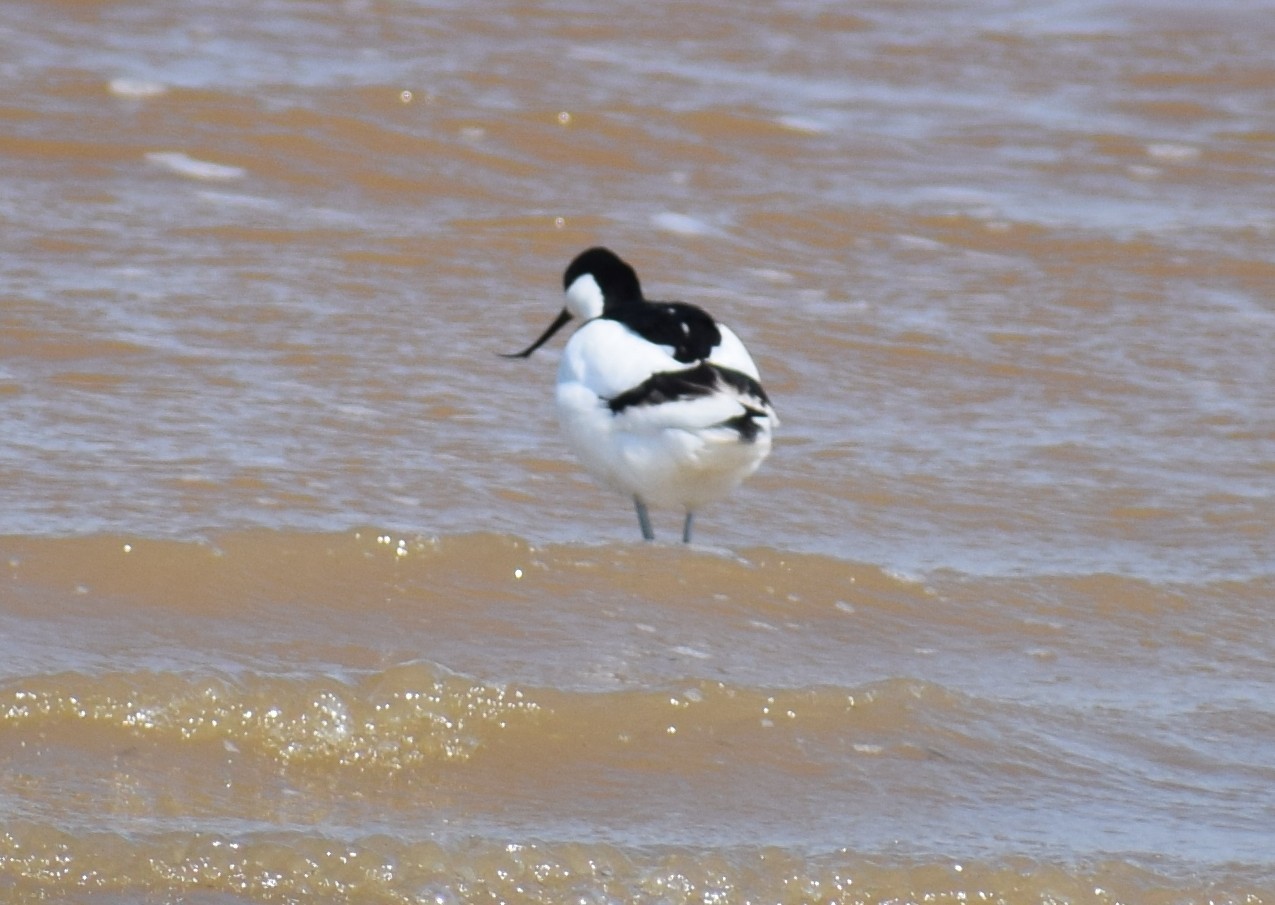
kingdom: Animalia
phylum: Chordata
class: Aves
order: Charadriiformes
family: Recurvirostridae
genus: Recurvirostra
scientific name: Recurvirostra avosetta
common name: Pied avocet
